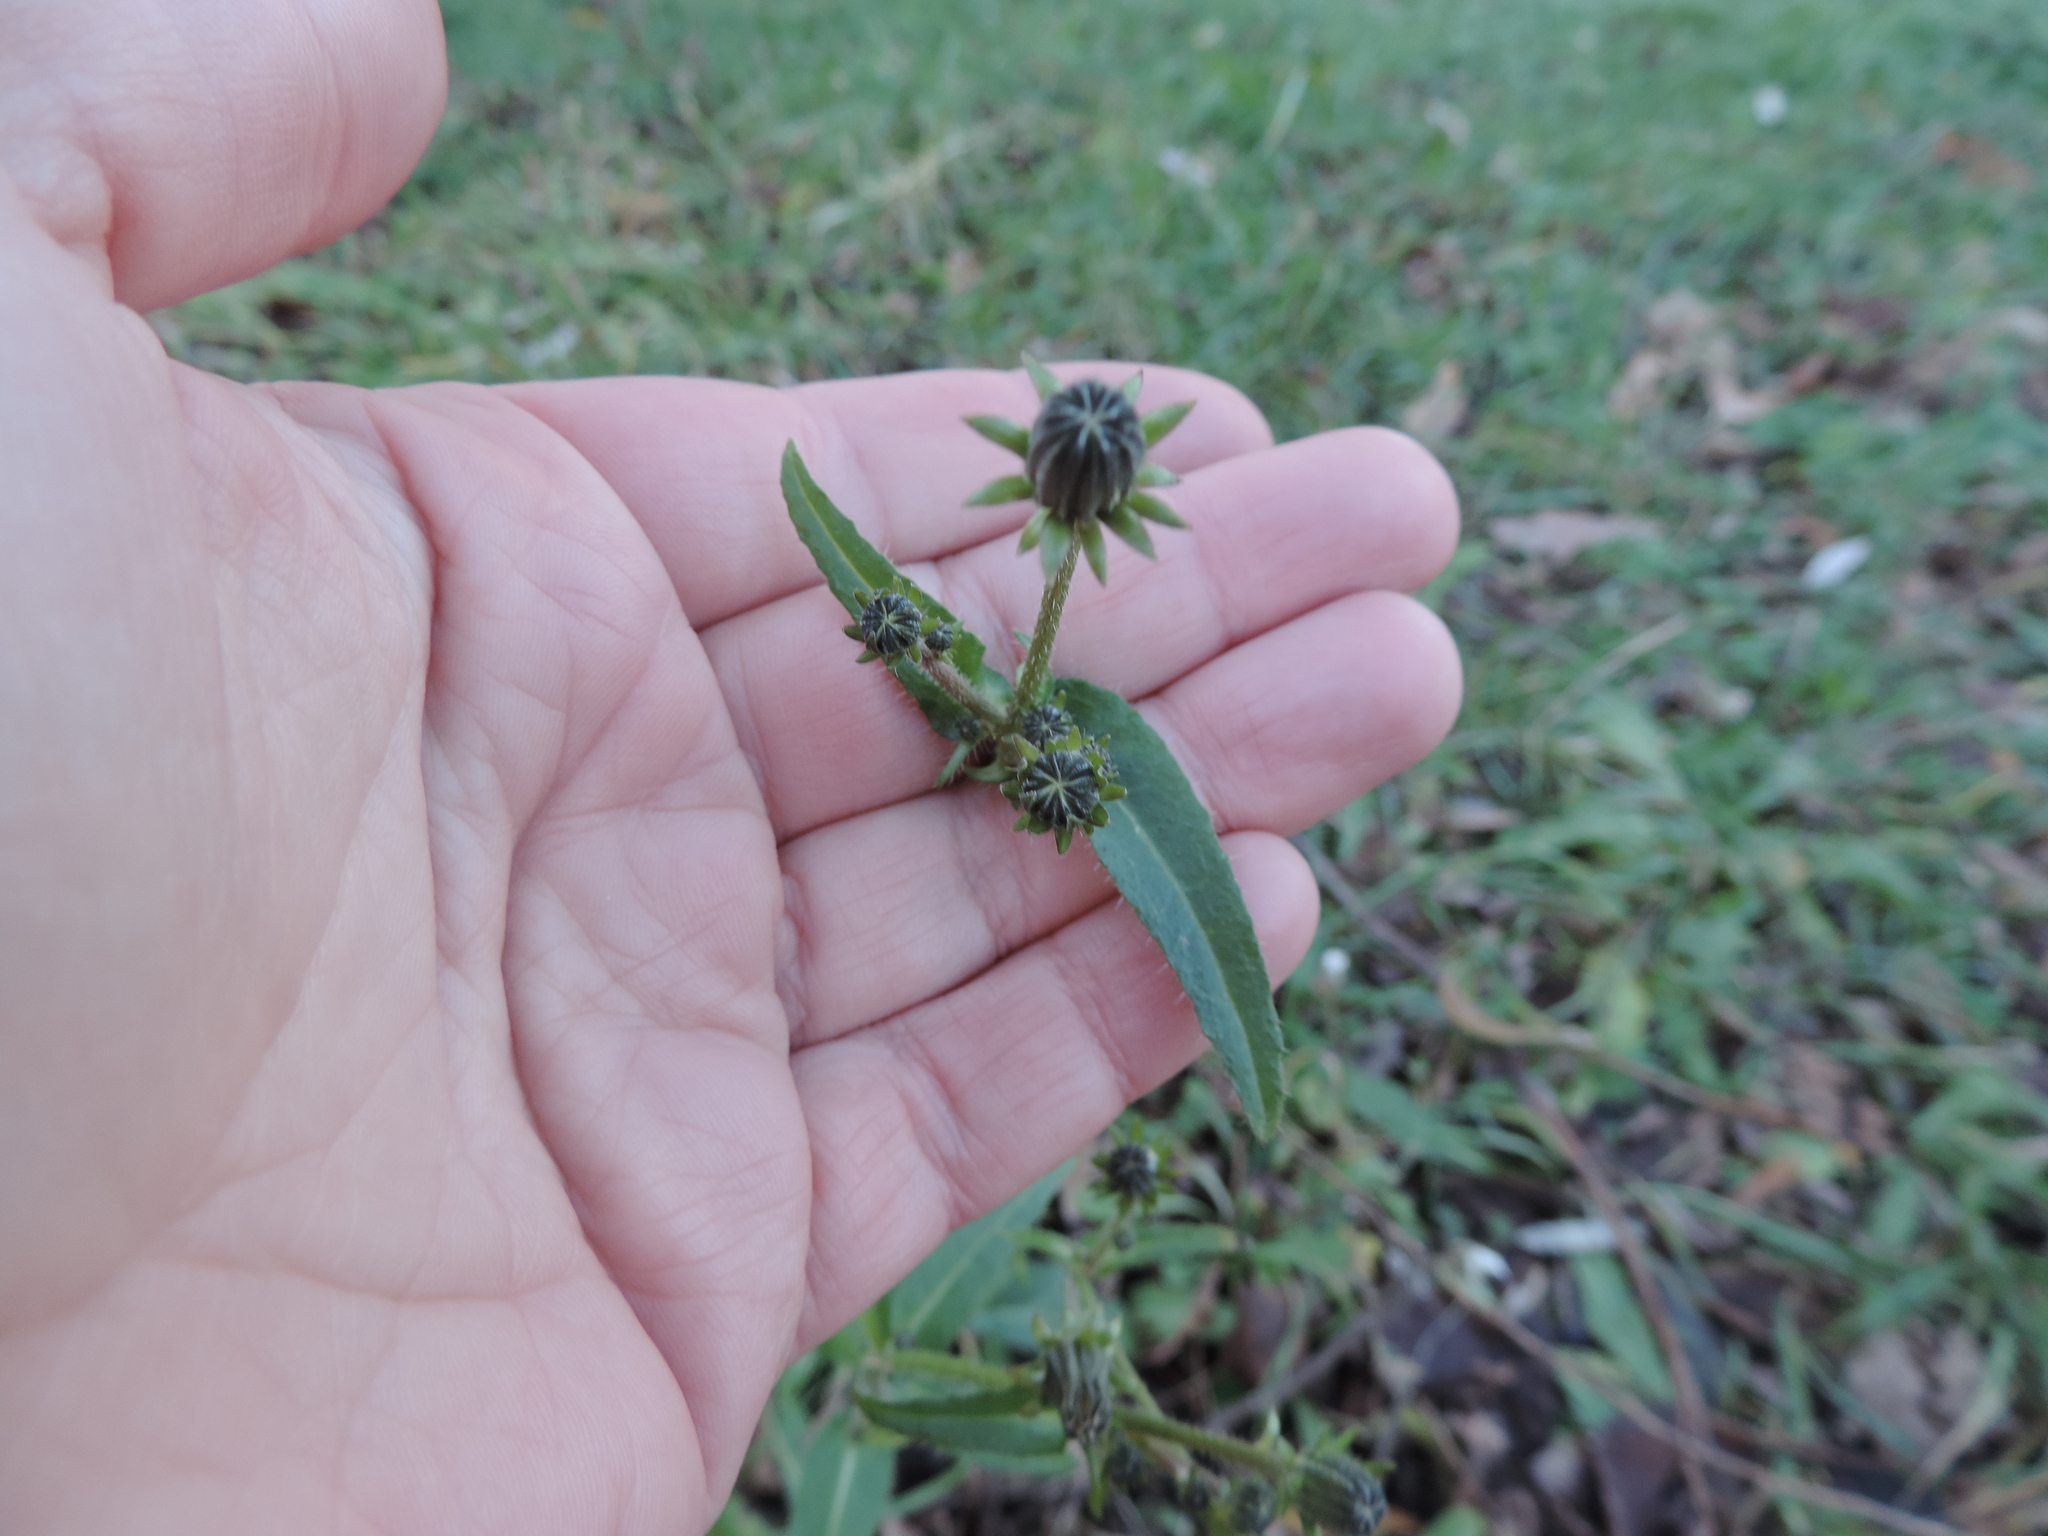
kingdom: Plantae
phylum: Tracheophyta
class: Magnoliopsida
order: Asterales
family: Asteraceae
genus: Picris
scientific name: Picris hieracioides
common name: Hawkweed oxtongue
